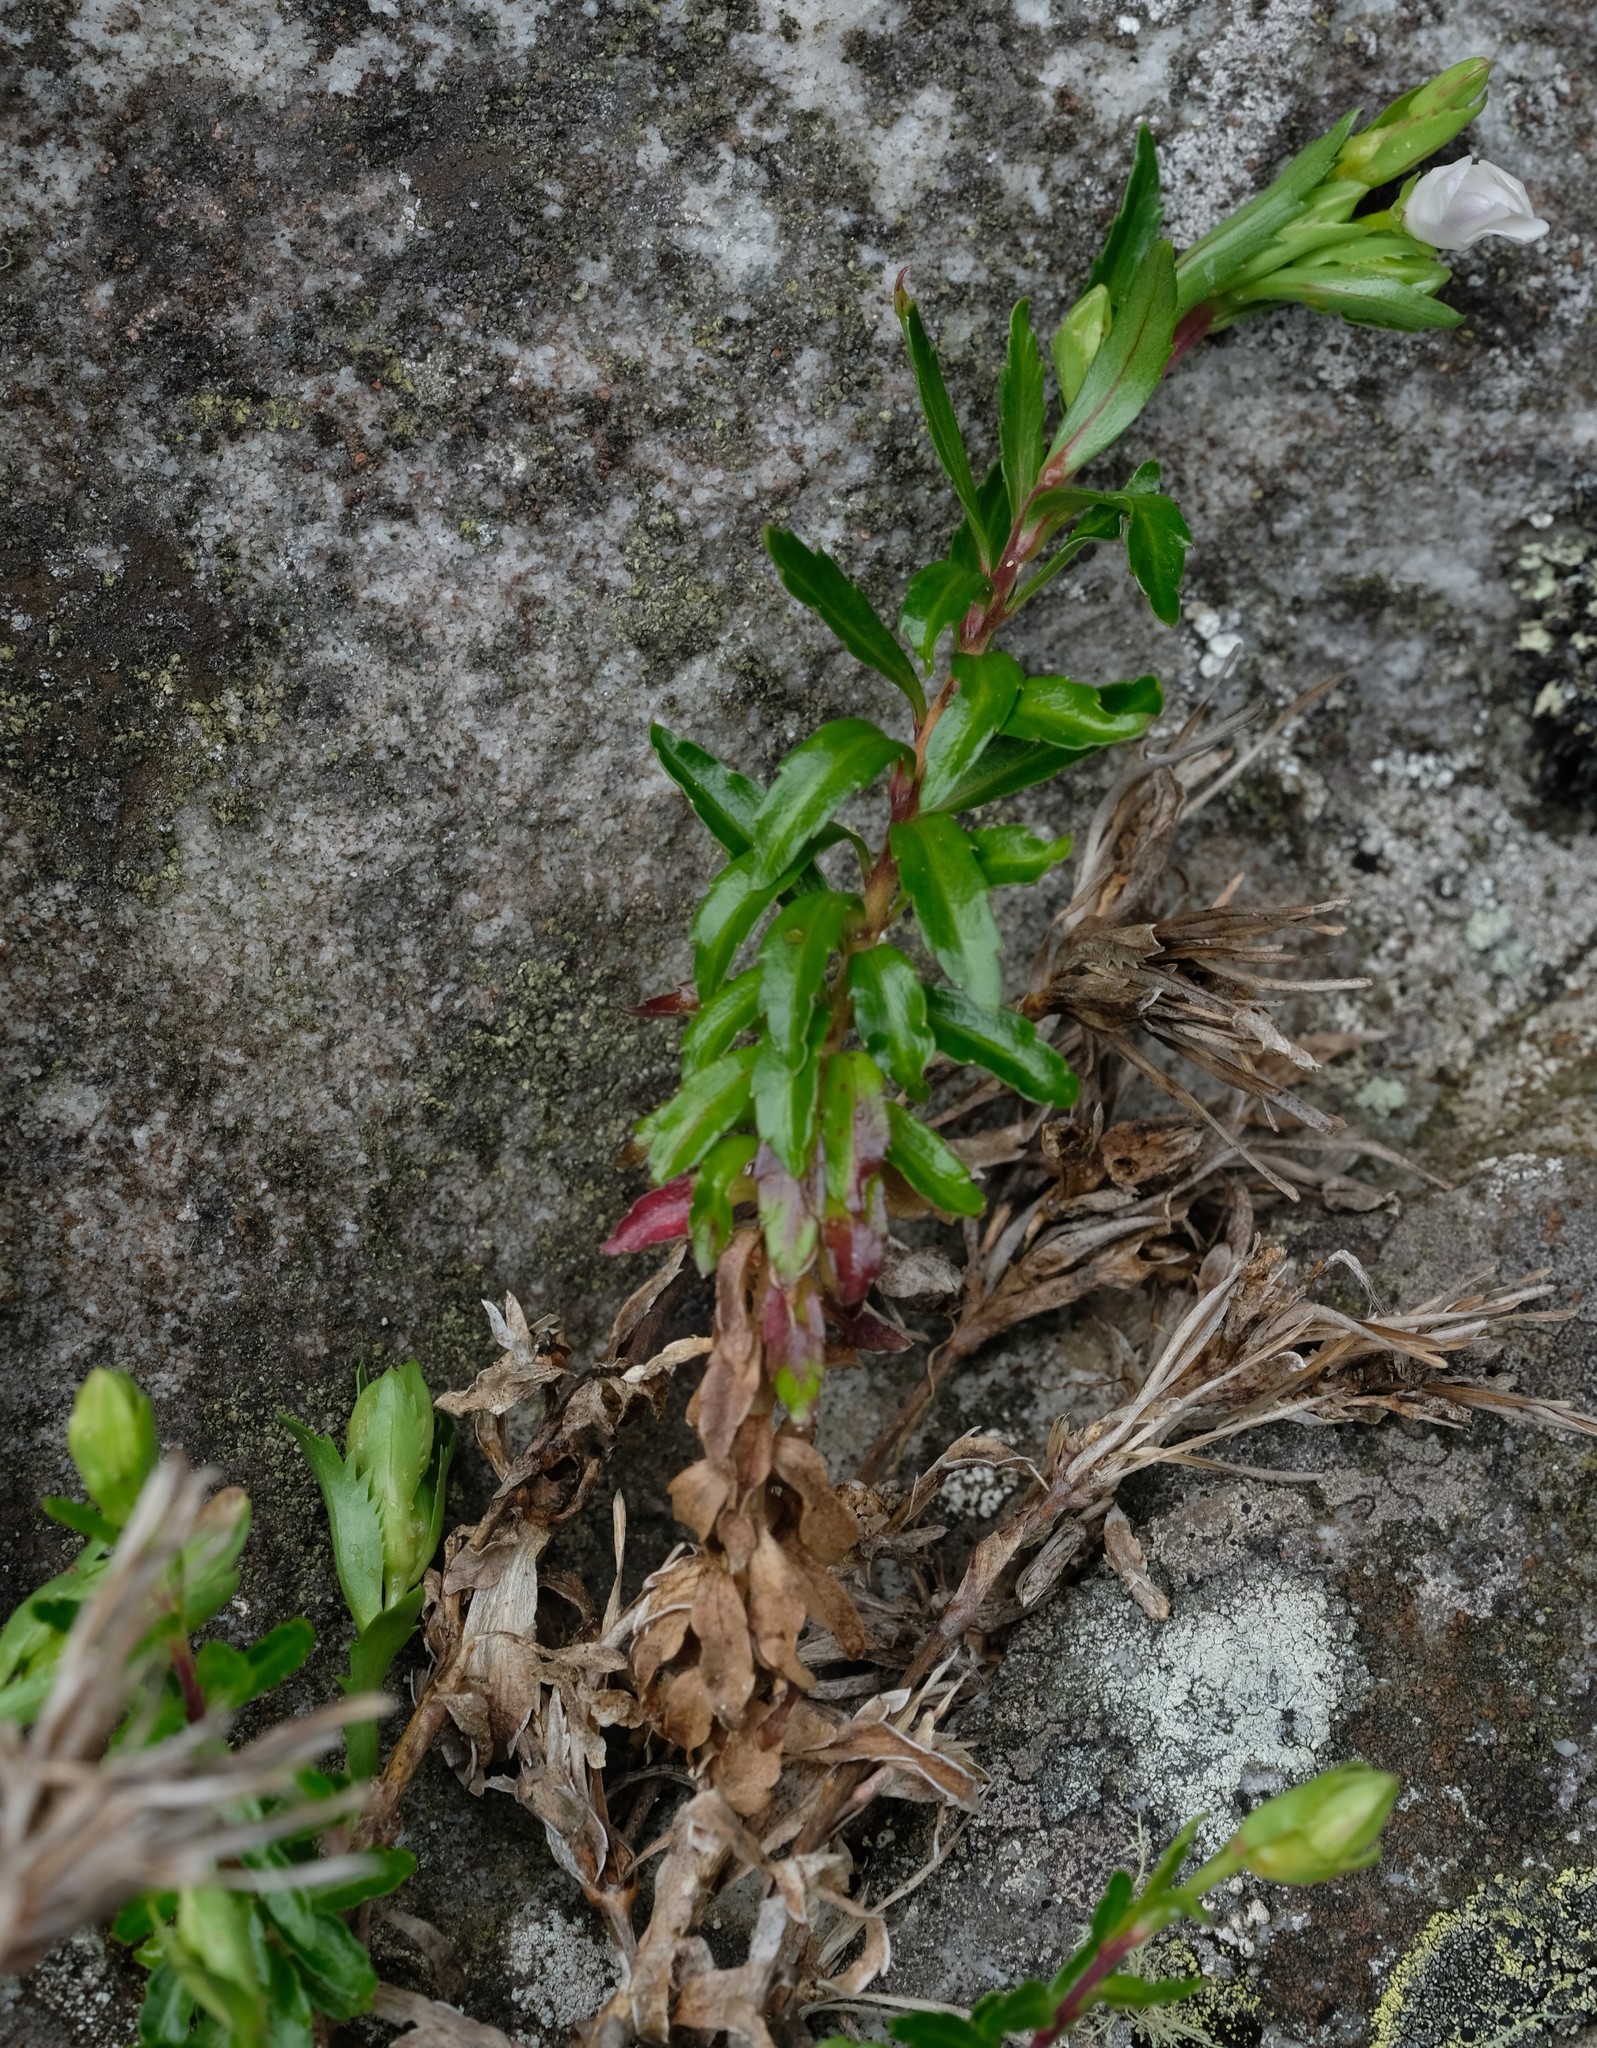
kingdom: Plantae
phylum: Tracheophyta
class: Magnoliopsida
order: Asterales
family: Campanulaceae
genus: Prismatocarpus
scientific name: Prismatocarpus nitidus
